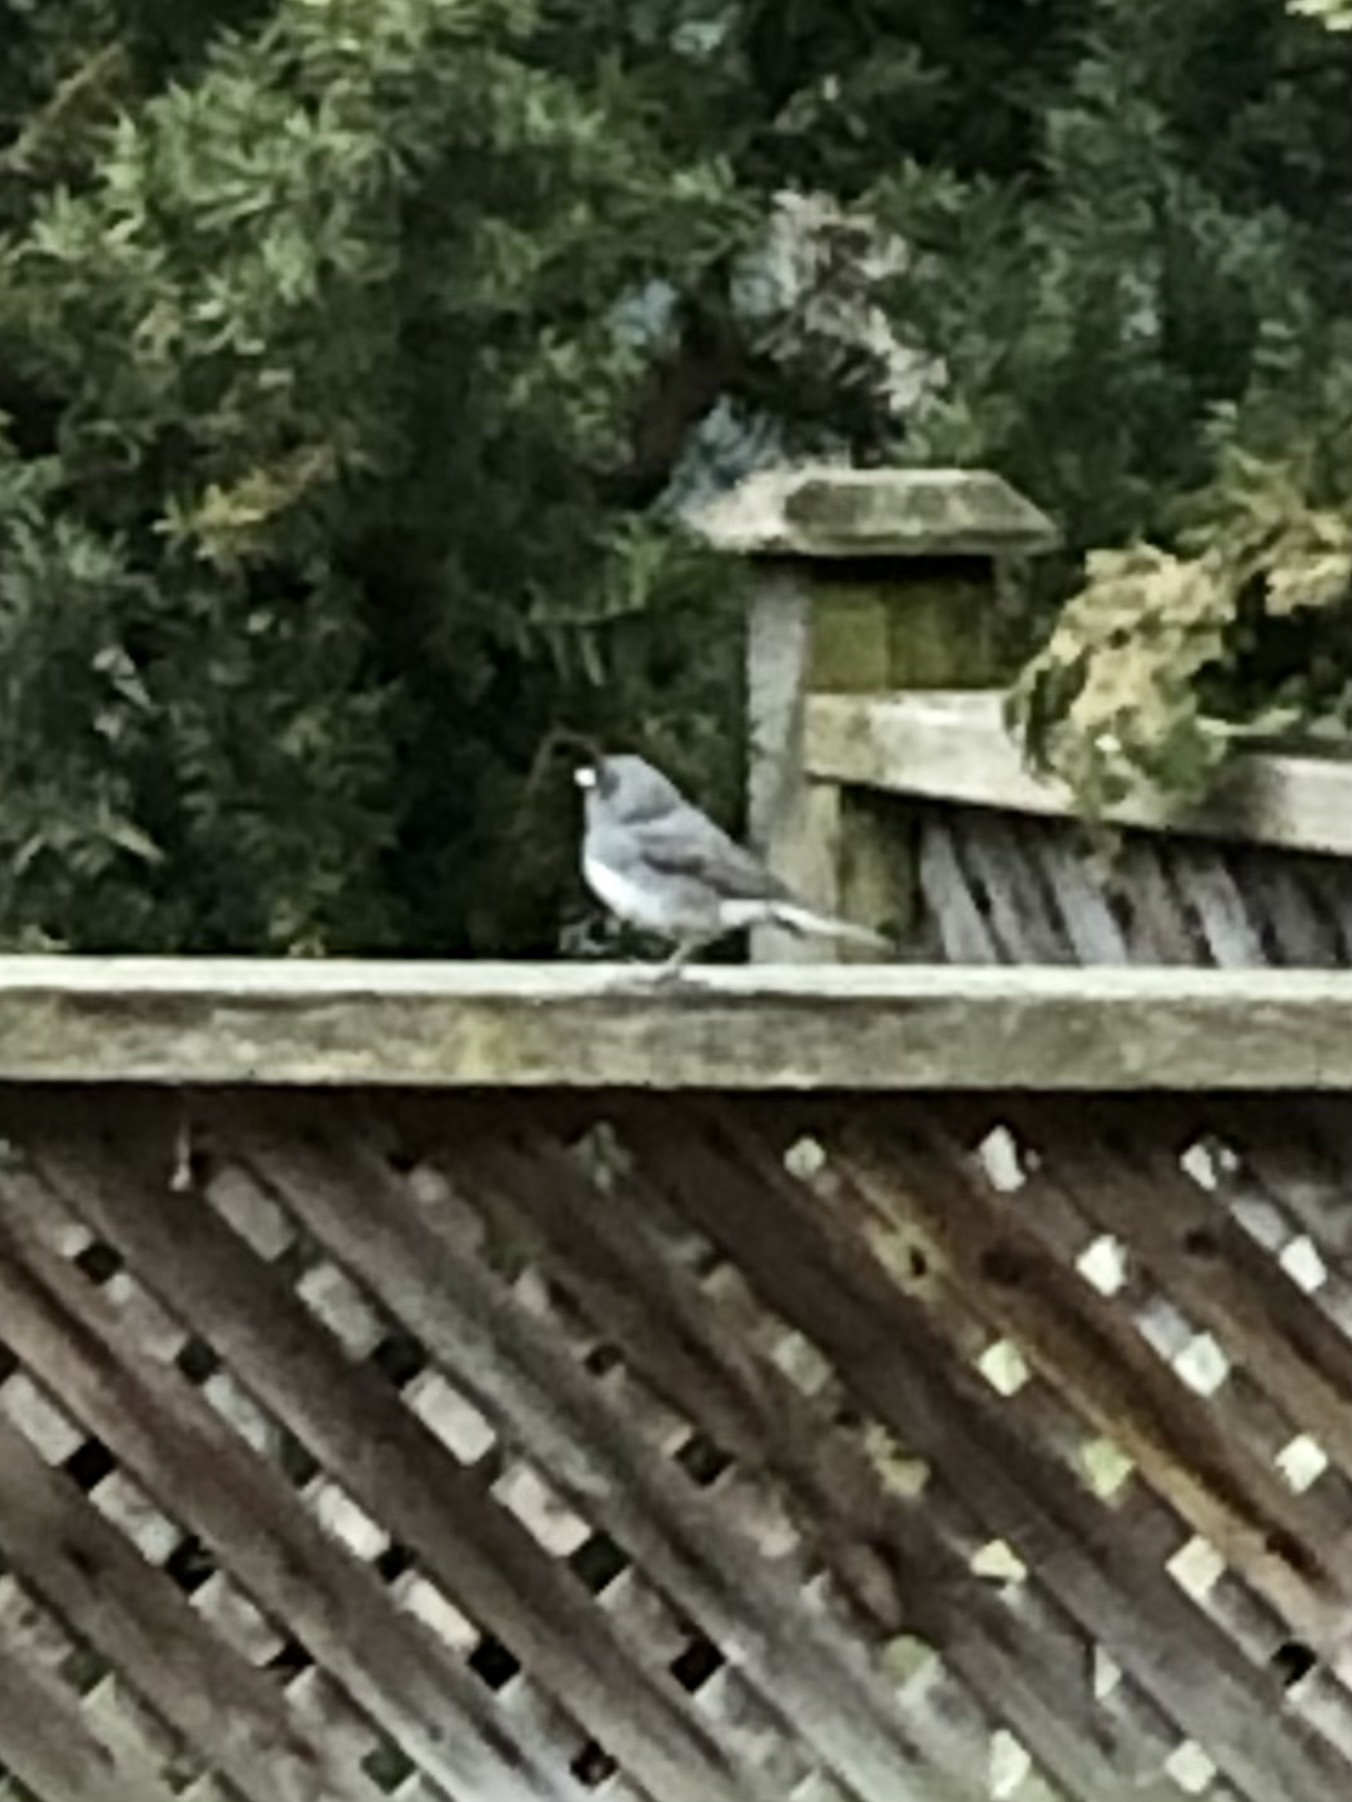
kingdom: Animalia
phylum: Chordata
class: Aves
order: Passeriformes
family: Passerellidae
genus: Junco
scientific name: Junco hyemalis
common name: Dark-eyed junco
